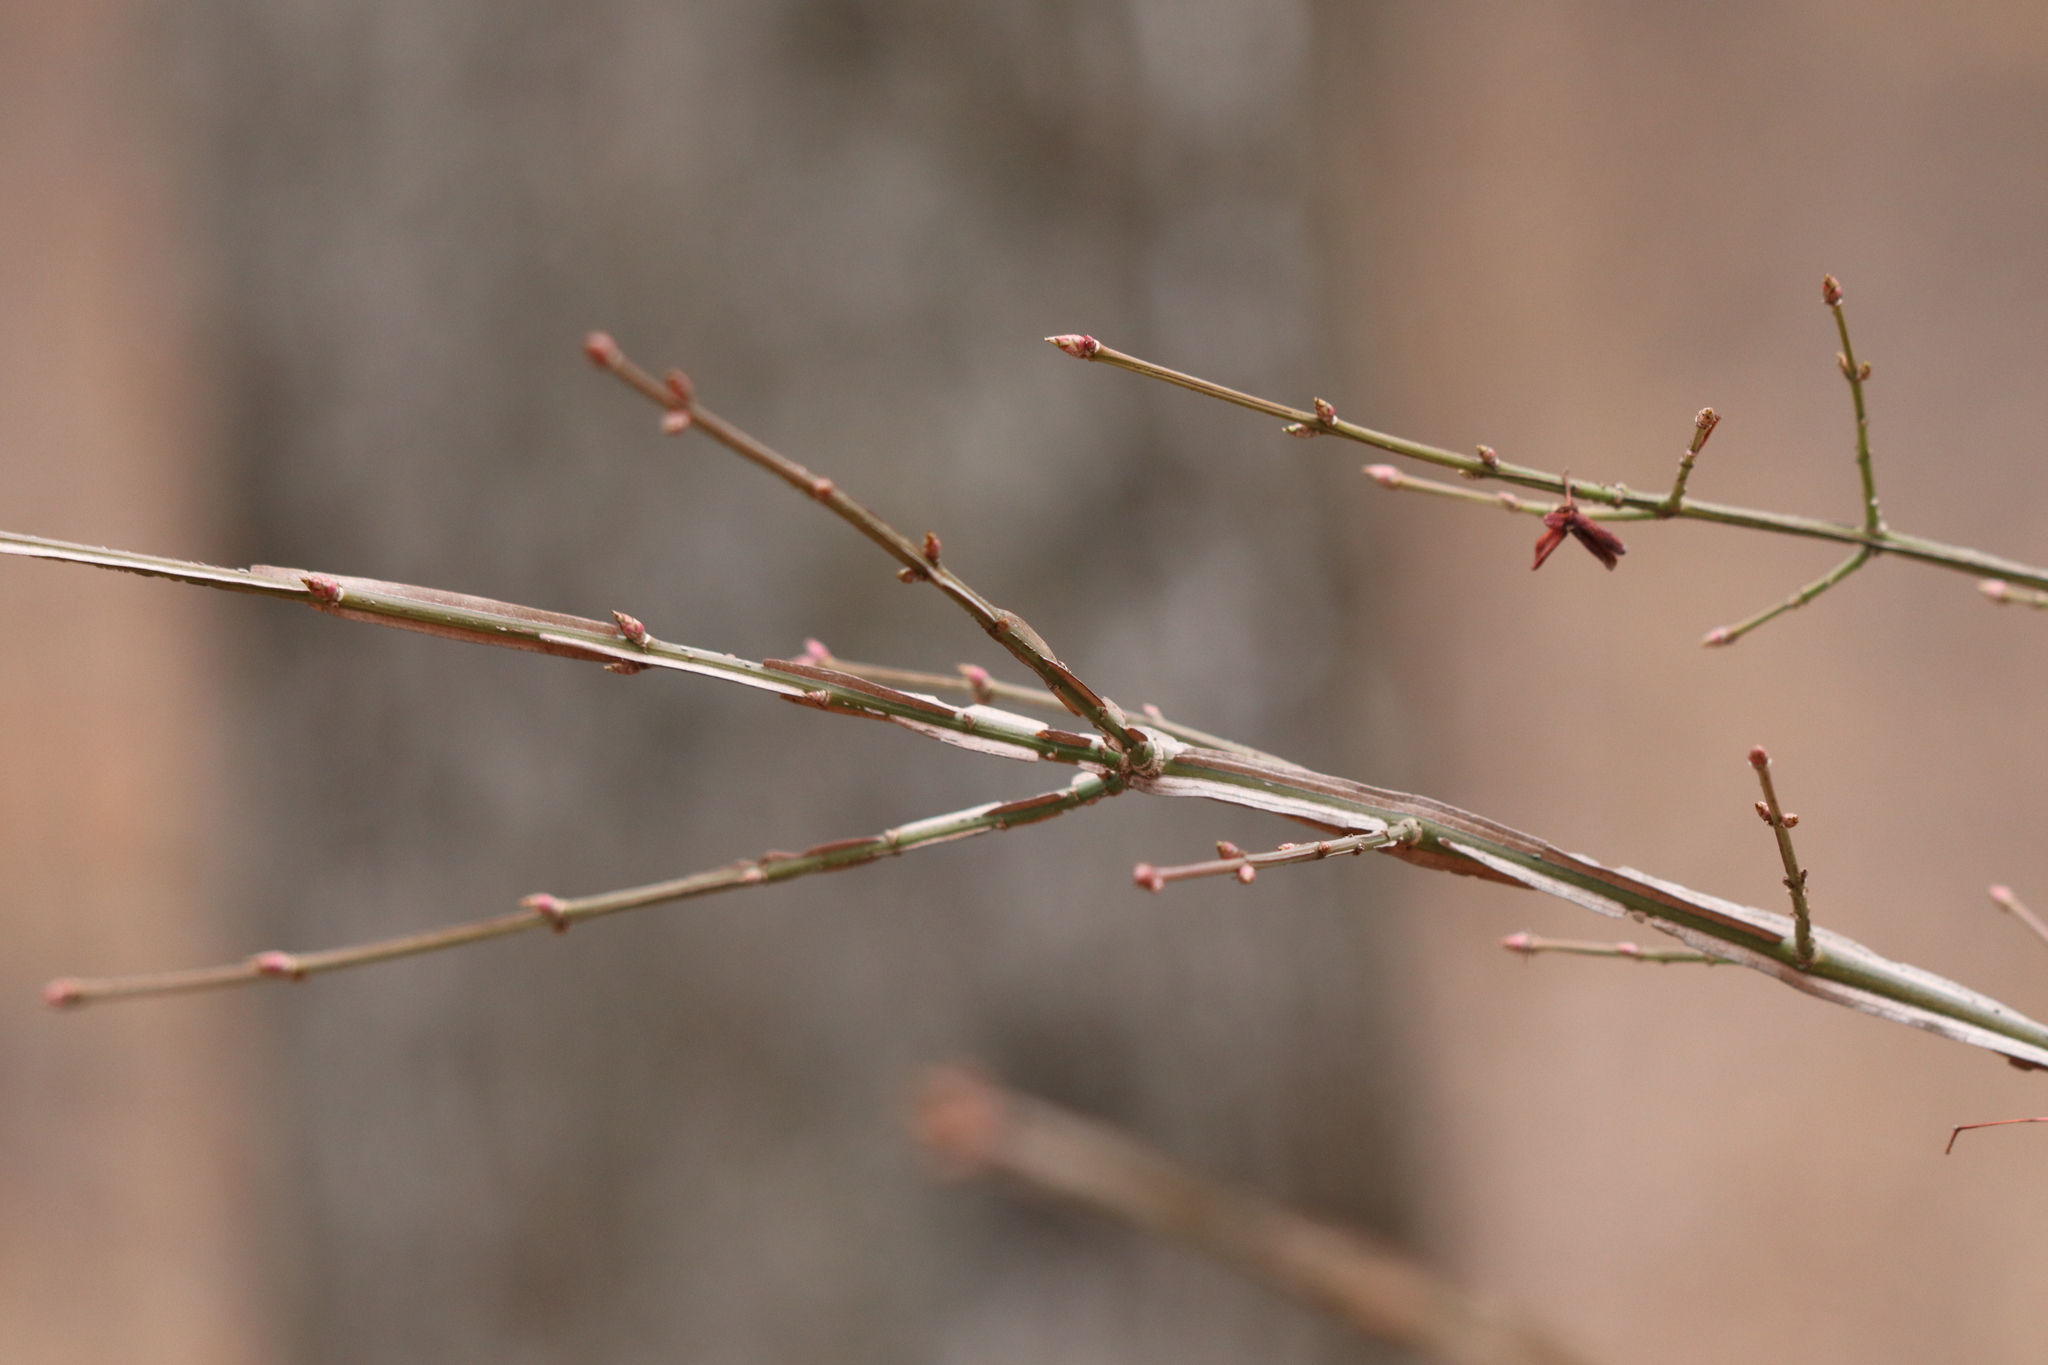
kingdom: Plantae
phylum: Tracheophyta
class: Magnoliopsida
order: Celastrales
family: Celastraceae
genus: Euonymus
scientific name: Euonymus alatus
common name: Winged euonymus
